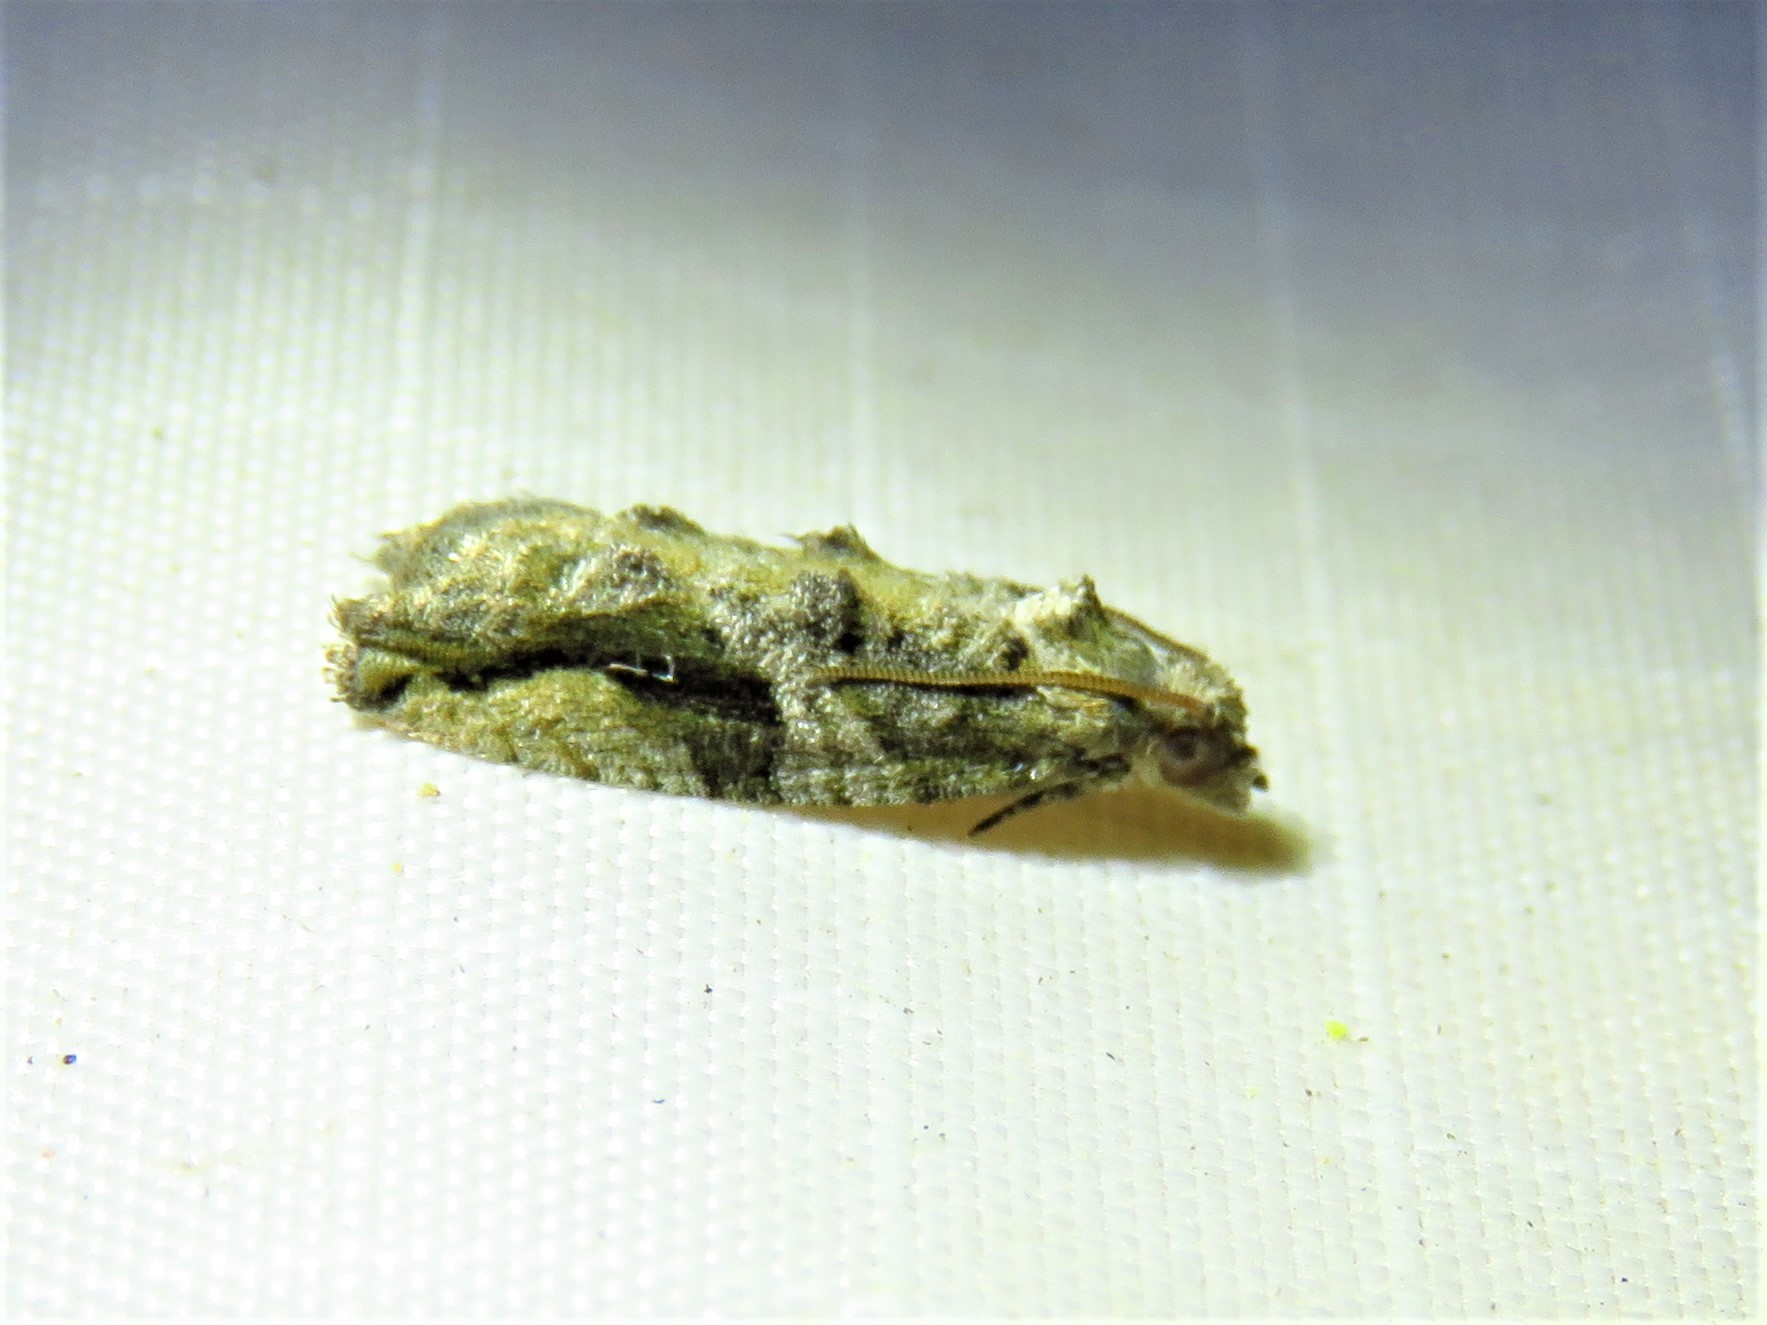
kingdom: Animalia
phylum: Arthropoda
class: Insecta
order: Lepidoptera
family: Tortricidae
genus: Proteoteras
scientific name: Proteoteras crescentana
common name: Black-crescent proteoteras moth
